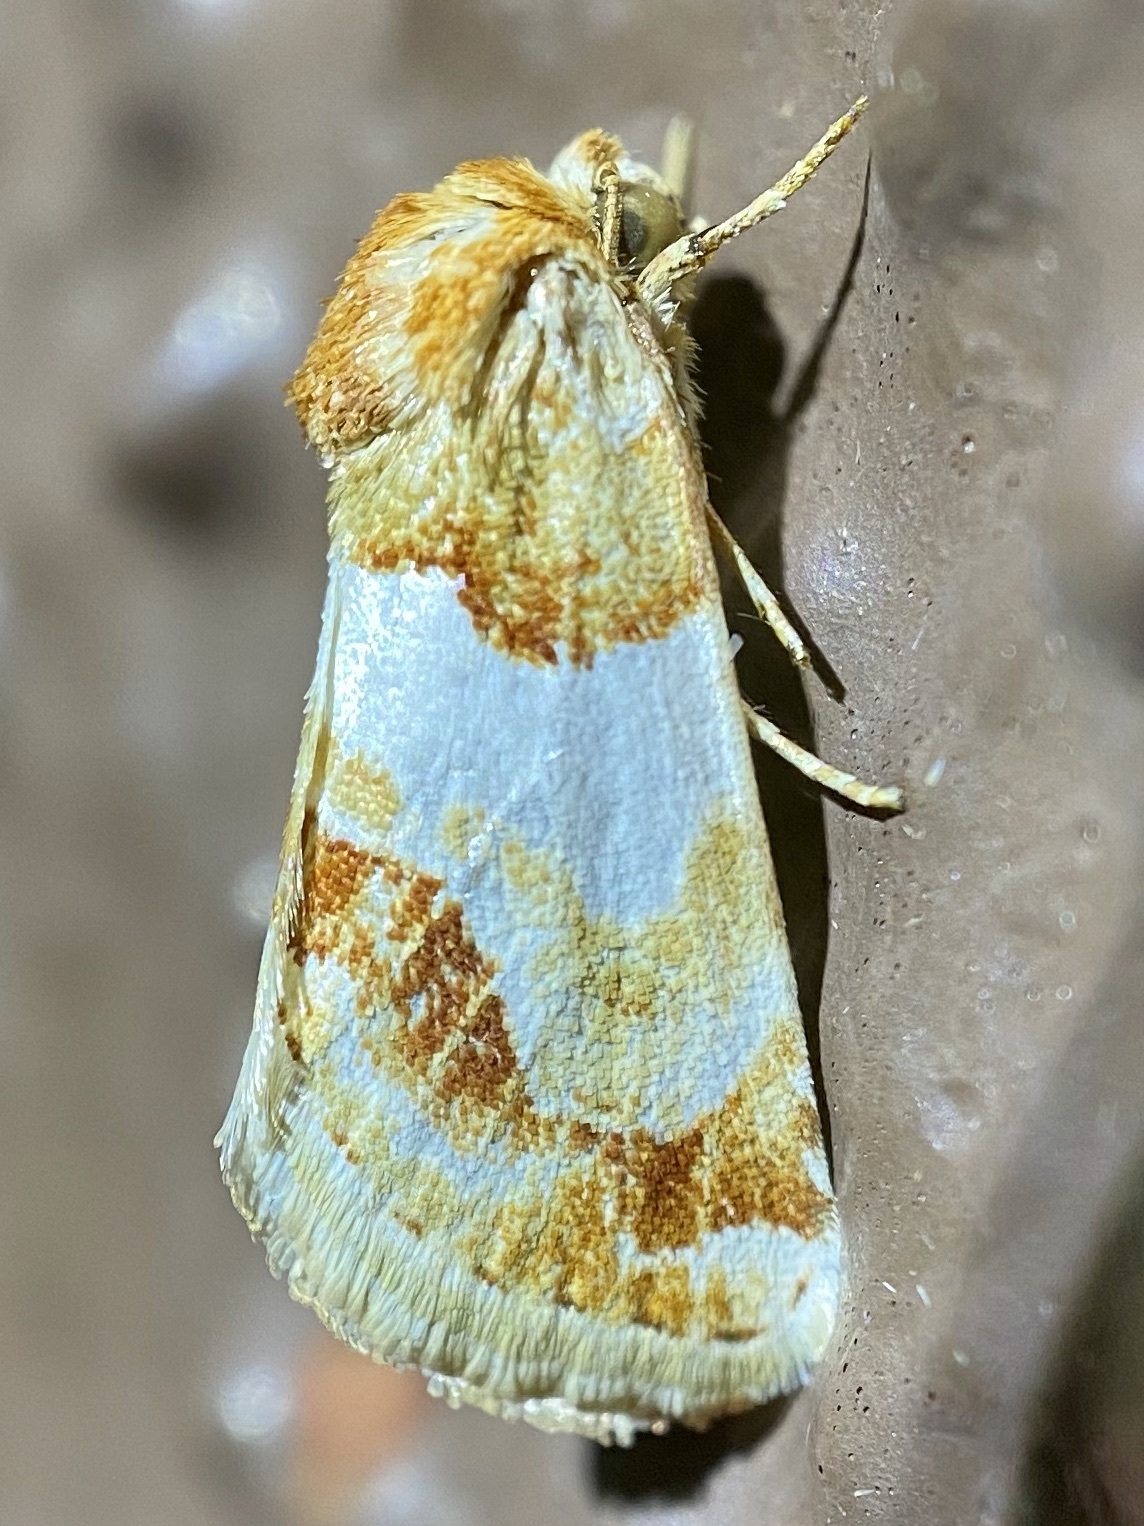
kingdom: Animalia
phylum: Arthropoda
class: Insecta
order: Lepidoptera
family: Noctuidae
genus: Schinia
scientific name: Schinia argentifascia
